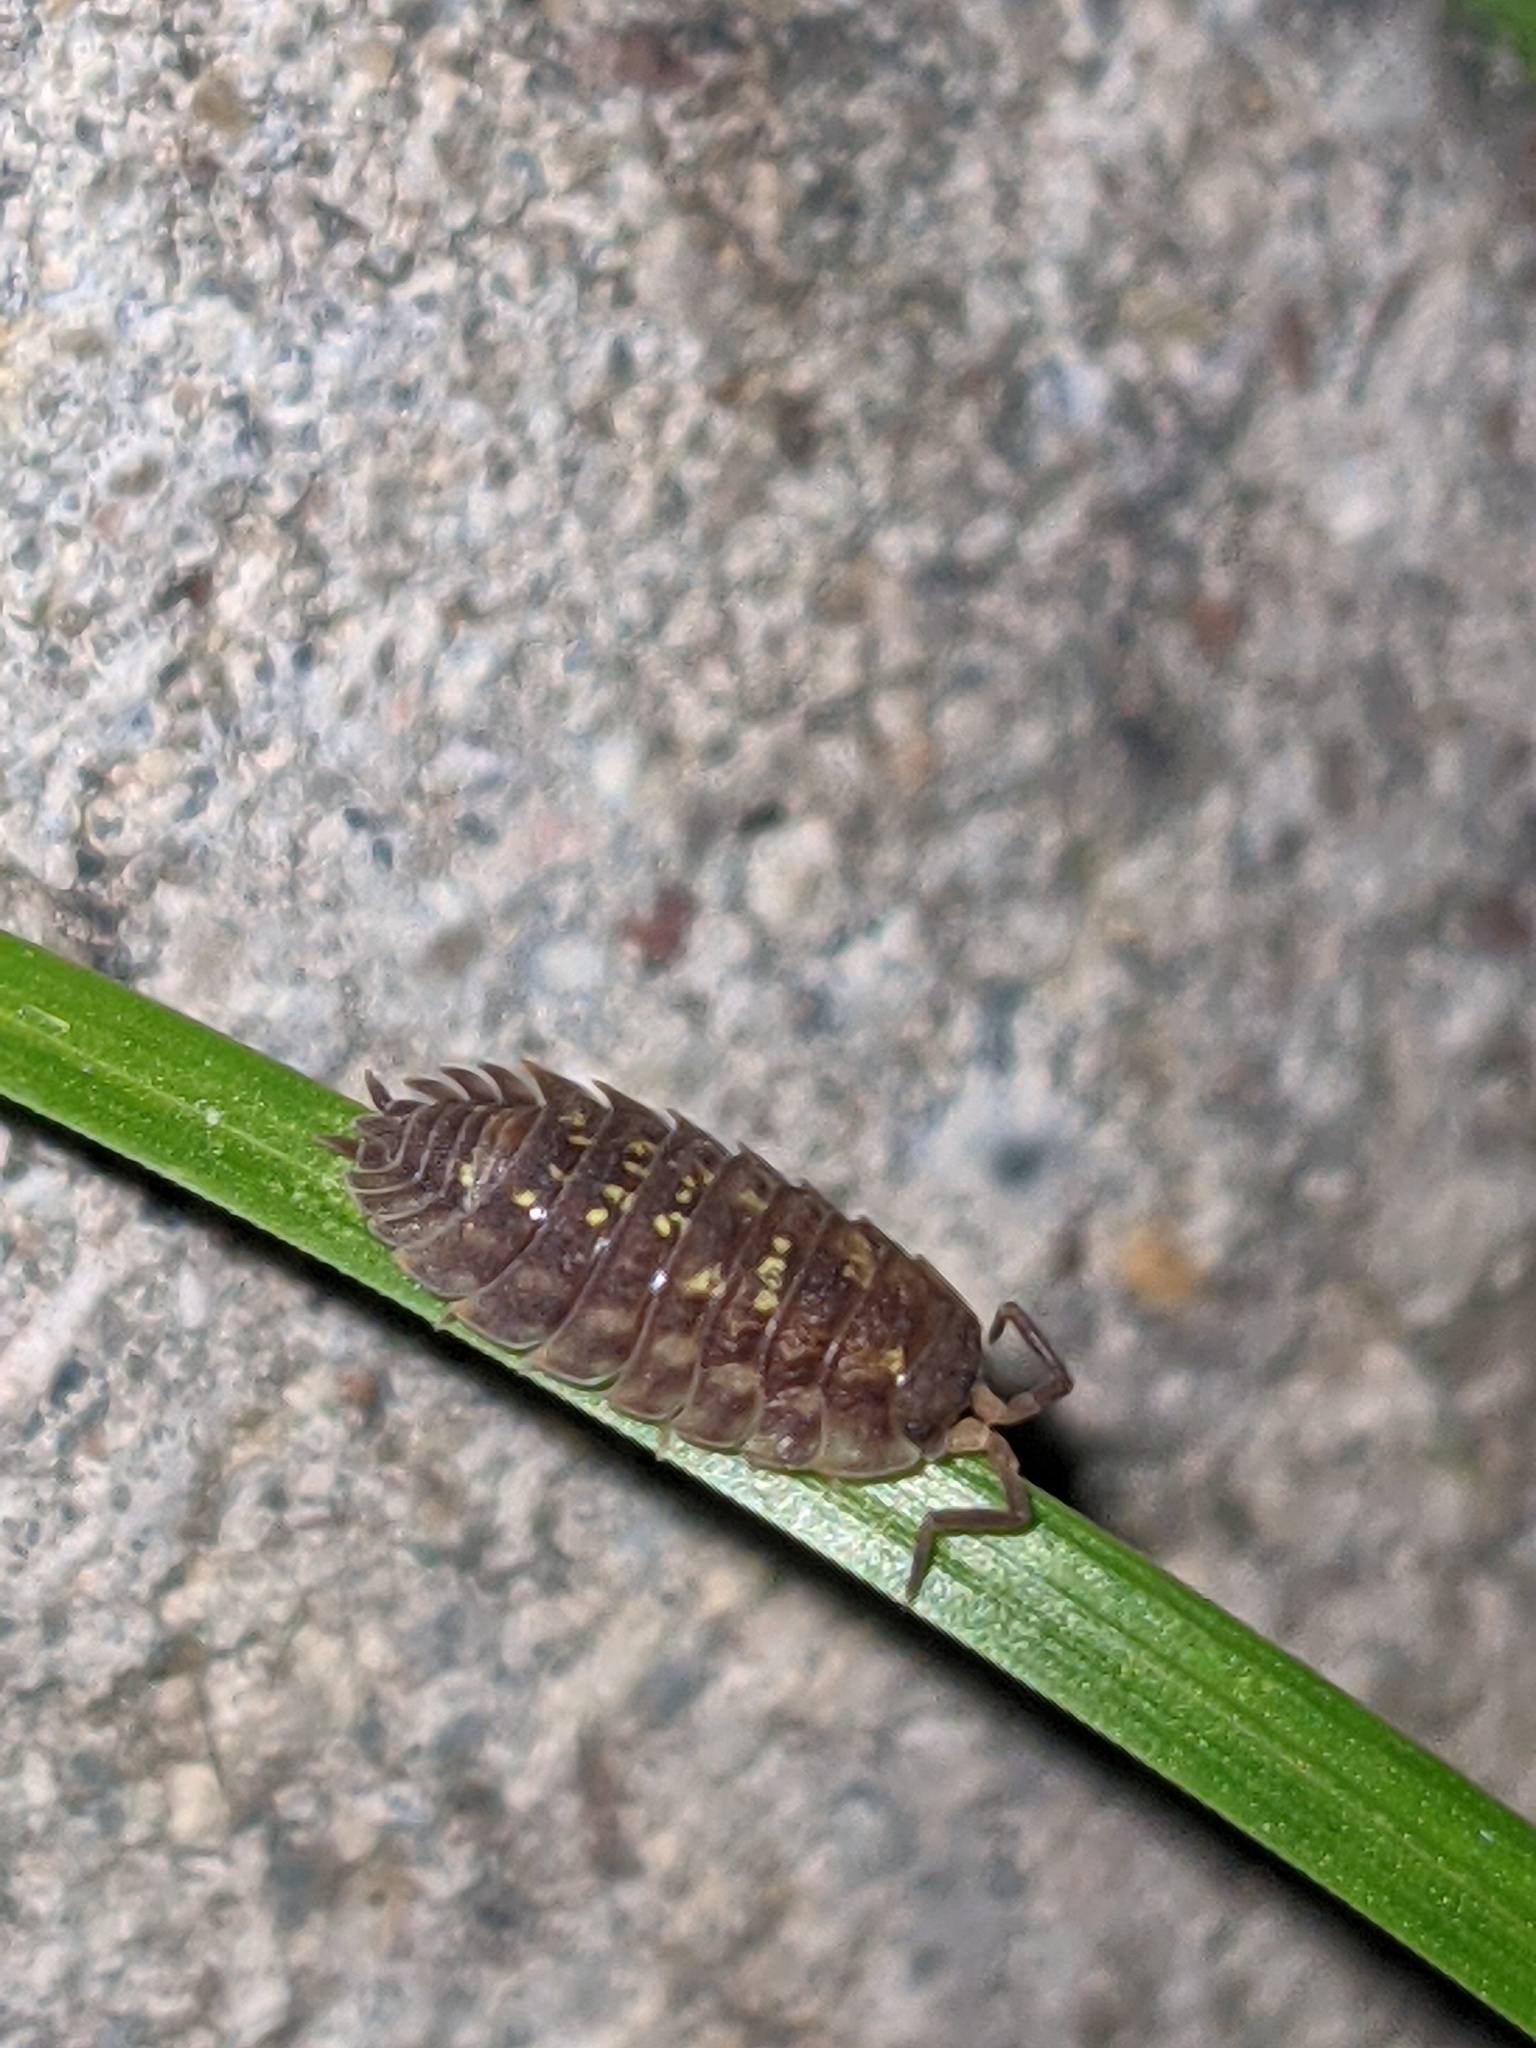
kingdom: Animalia
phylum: Arthropoda
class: Malacostraca
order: Isopoda
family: Oniscidae
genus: Oniscus
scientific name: Oniscus asellus
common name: Common shiny woodlouse
